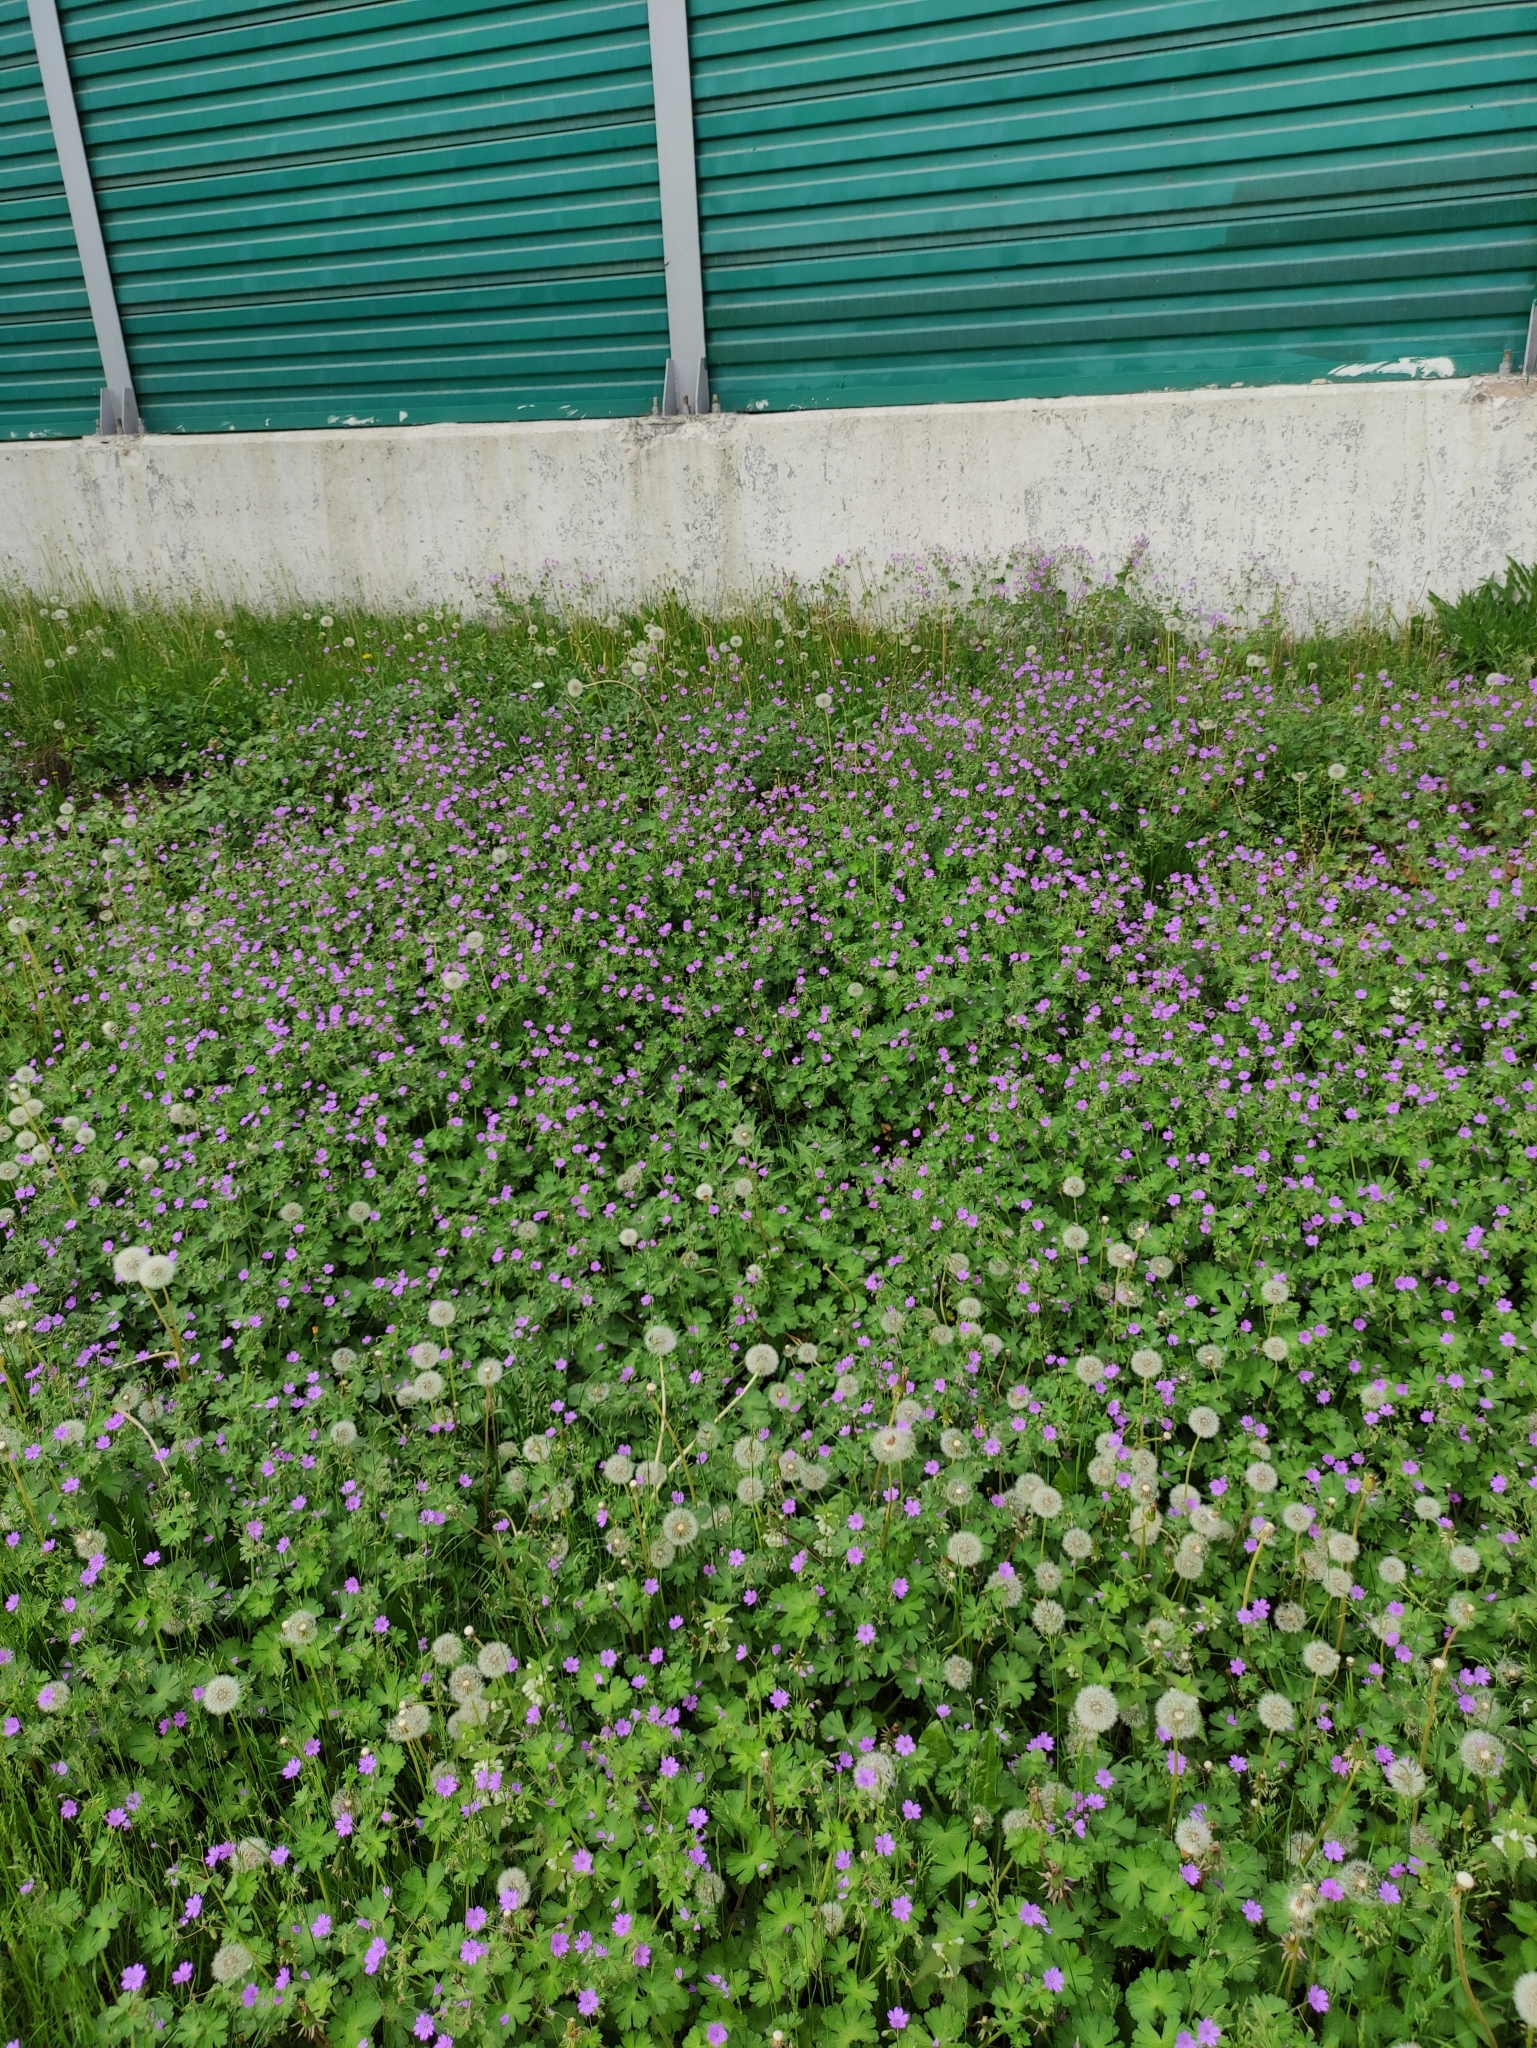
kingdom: Plantae
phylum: Tracheophyta
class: Magnoliopsida
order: Geraniales
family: Geraniaceae
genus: Geranium
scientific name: Geranium pyrenaicum
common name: Hedgerow crane's-bill
